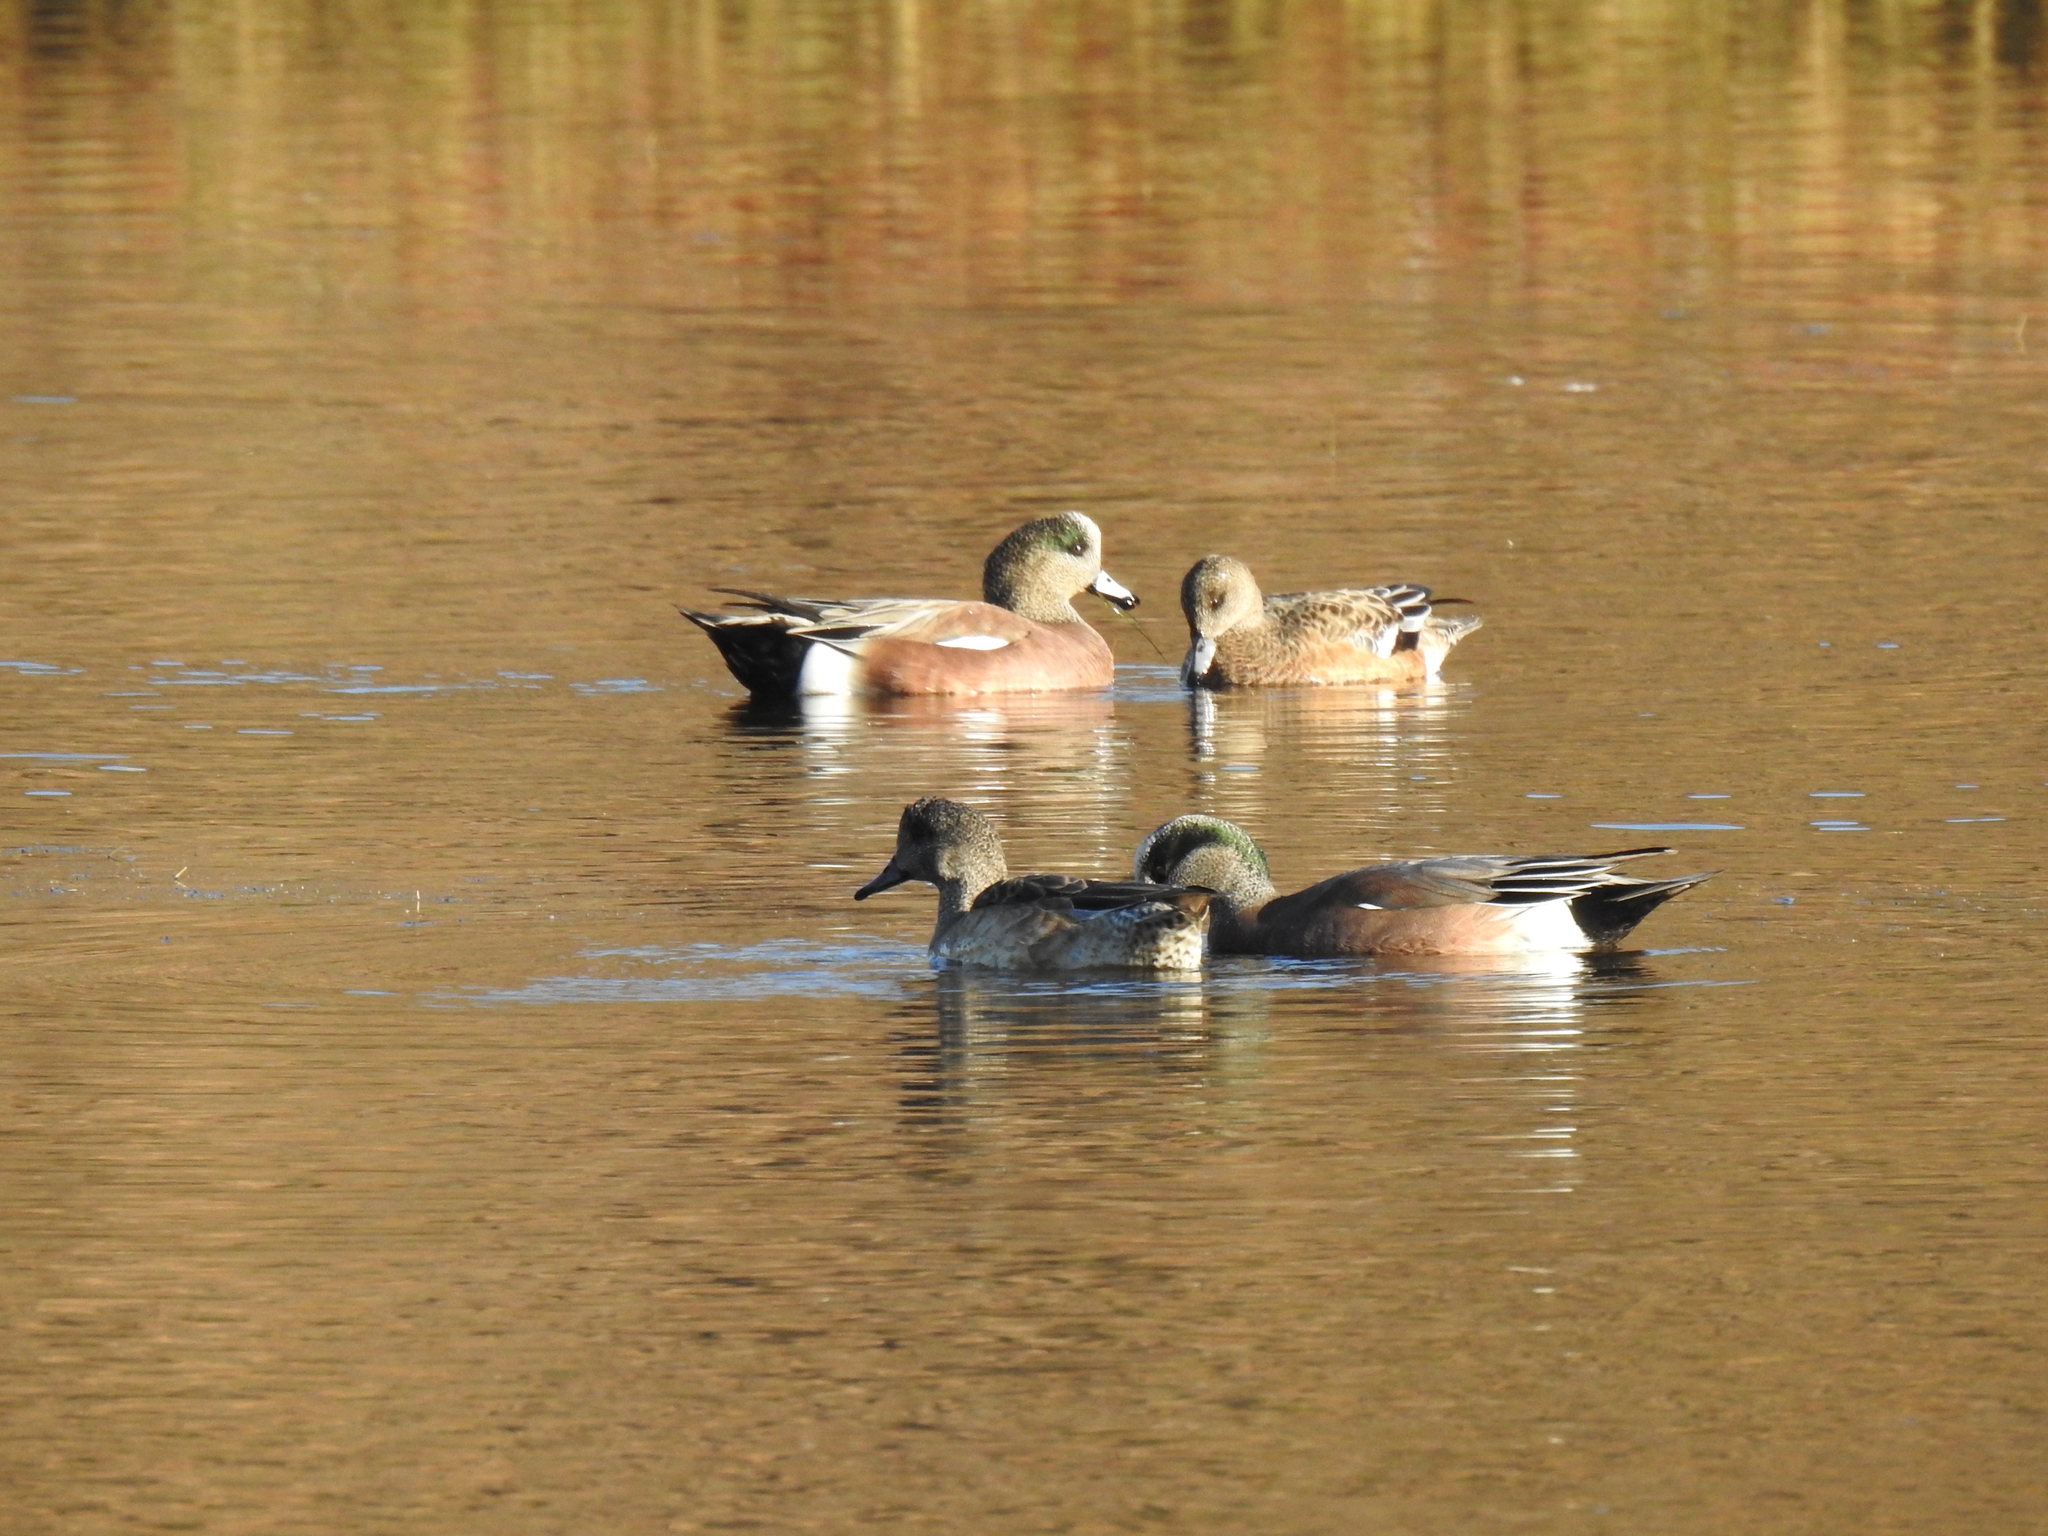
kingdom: Animalia
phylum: Chordata
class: Aves
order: Anseriformes
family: Anatidae
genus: Mareca
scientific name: Mareca americana
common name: American wigeon
